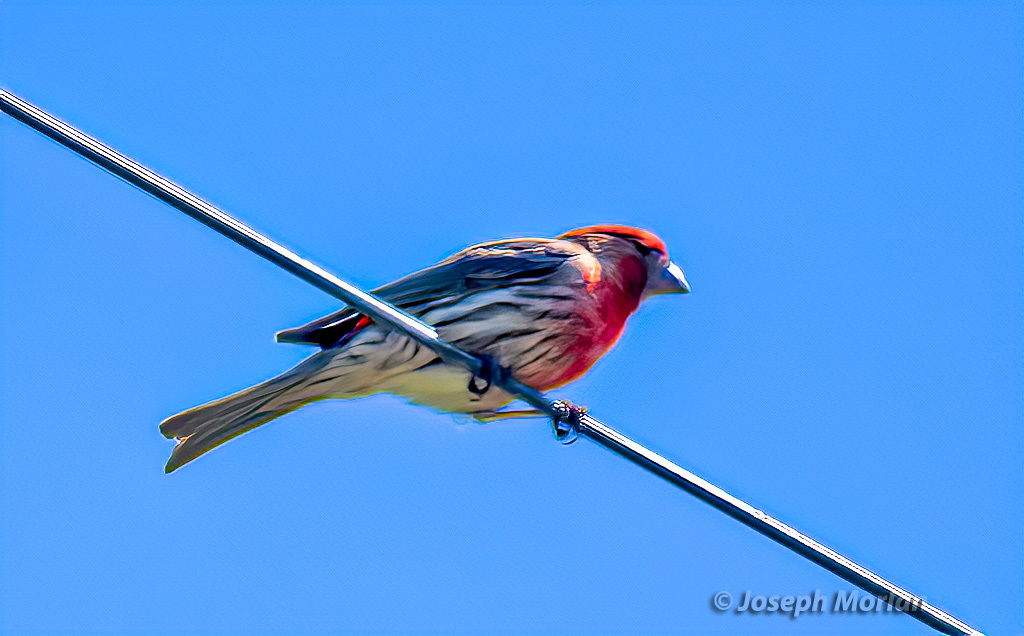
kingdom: Animalia
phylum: Chordata
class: Aves
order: Passeriformes
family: Fringillidae
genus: Haemorhous
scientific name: Haemorhous mexicanus
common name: House finch
